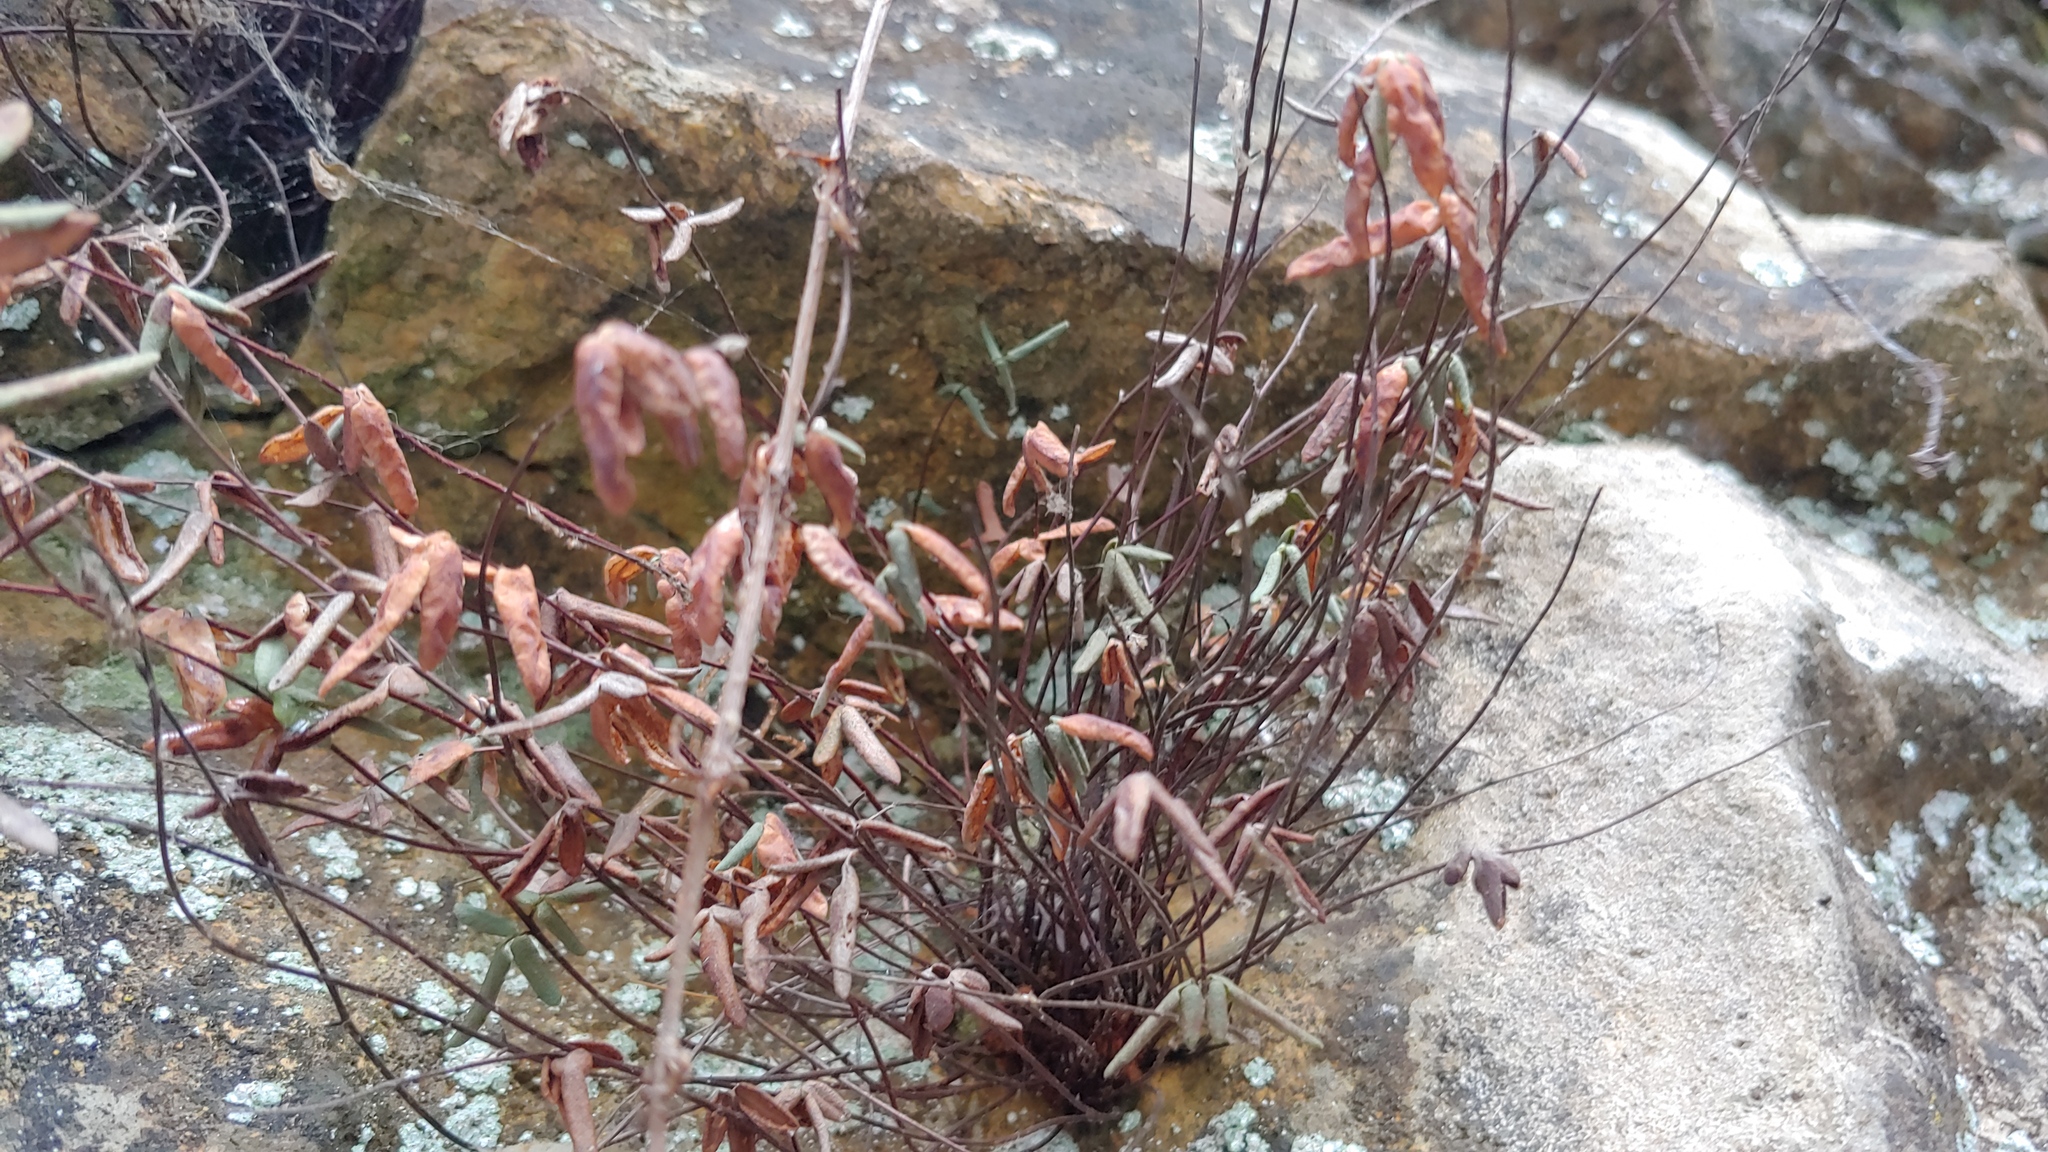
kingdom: Plantae
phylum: Tracheophyta
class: Polypodiopsida
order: Polypodiales
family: Pteridaceae
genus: Pellaea
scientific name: Pellaea glabella
